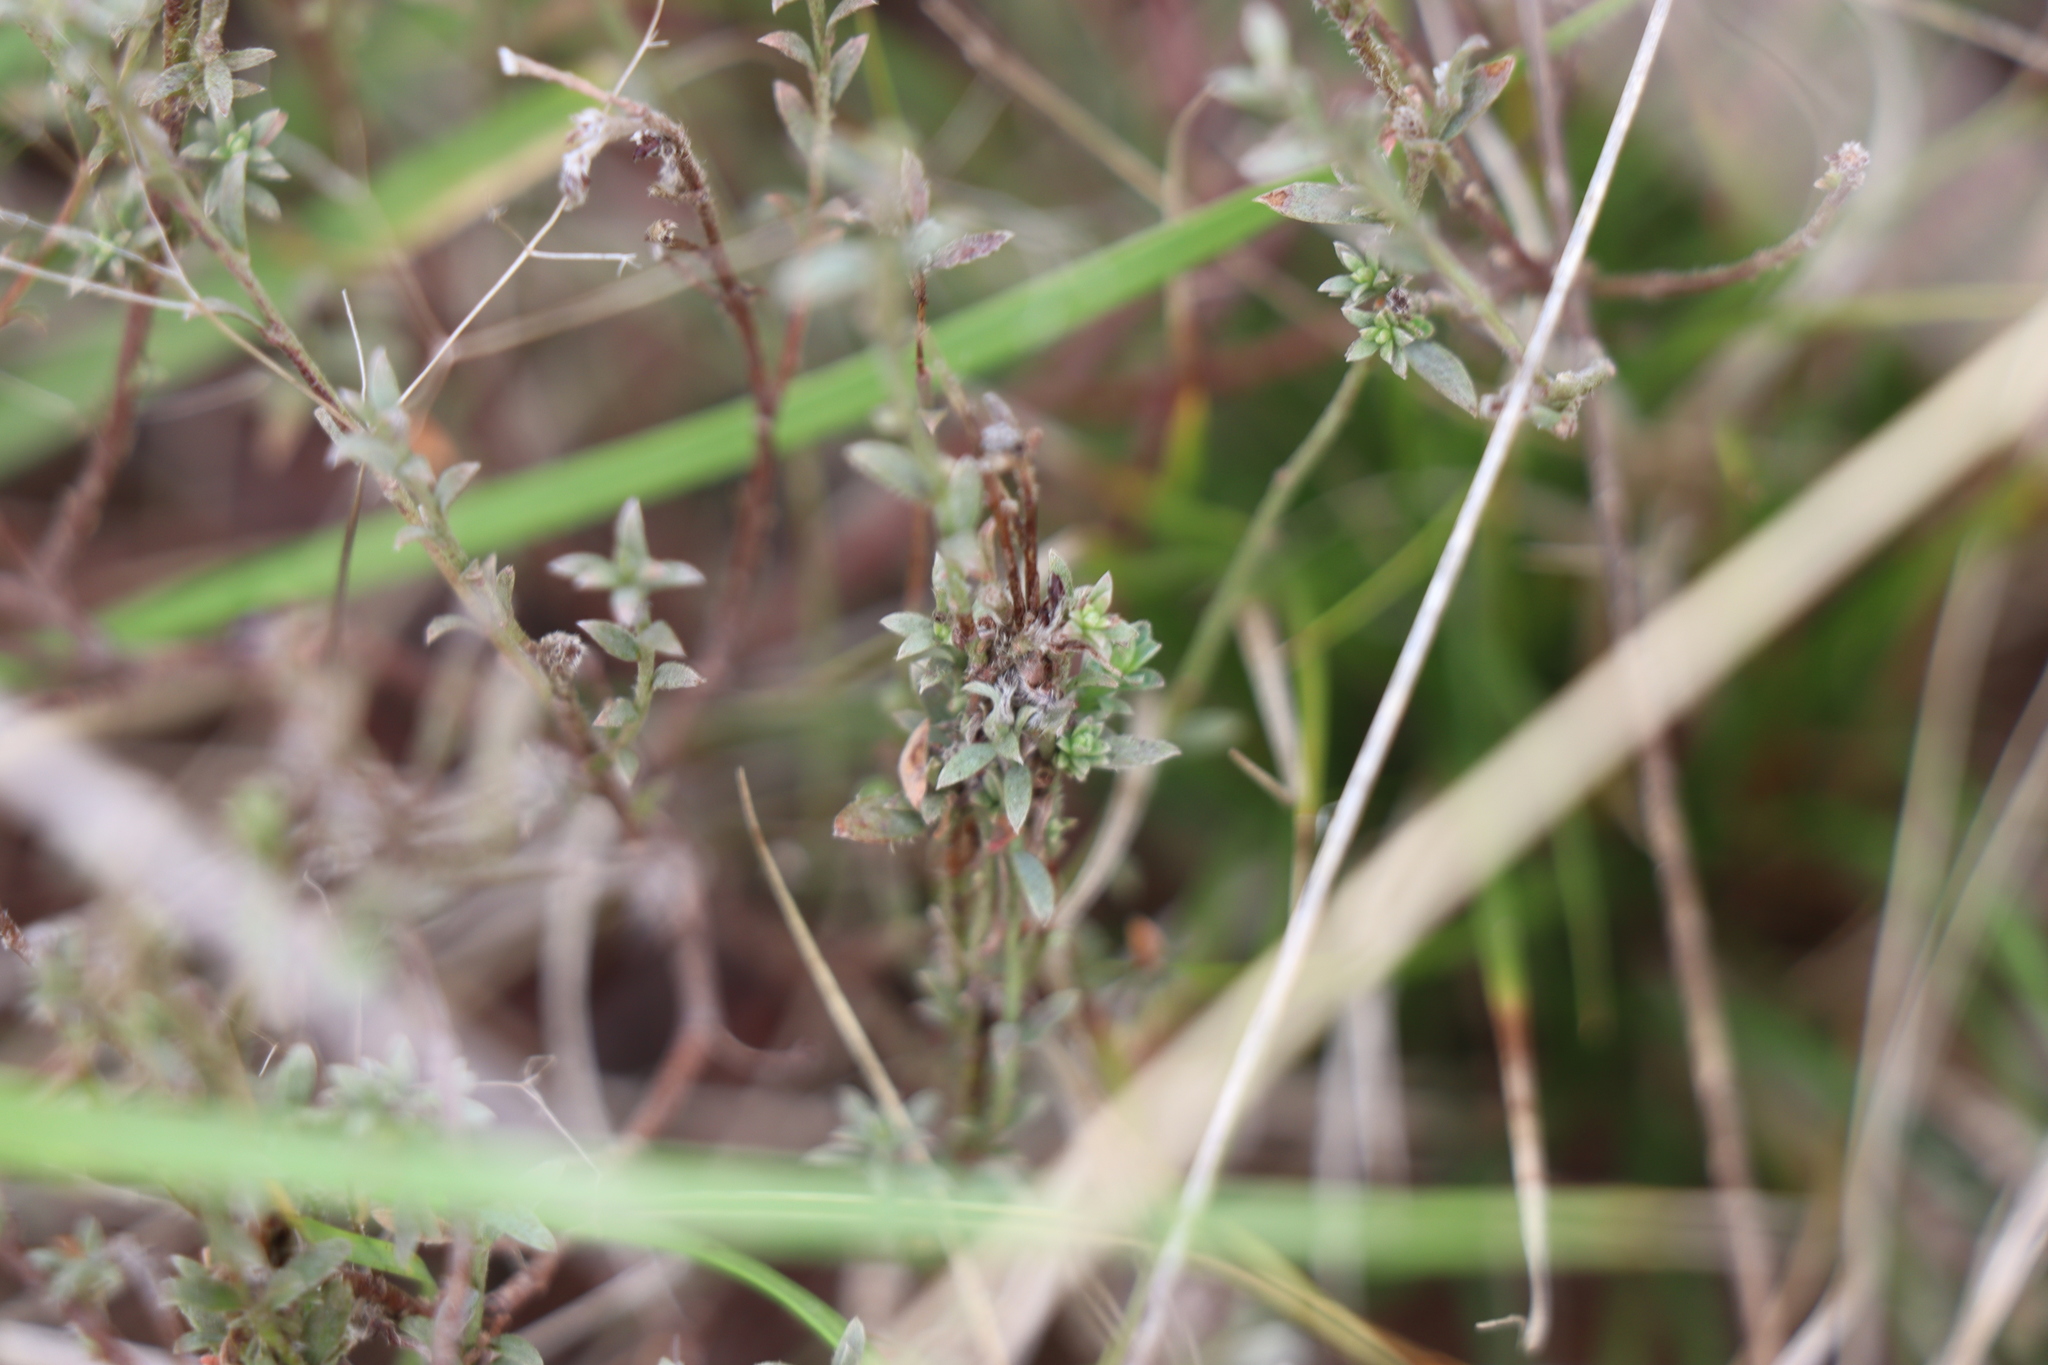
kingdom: Plantae
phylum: Tracheophyta
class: Magnoliopsida
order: Malvales
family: Thymelaeaceae
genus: Pimelea
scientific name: Pimelea curviflora
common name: Curved riceflower
